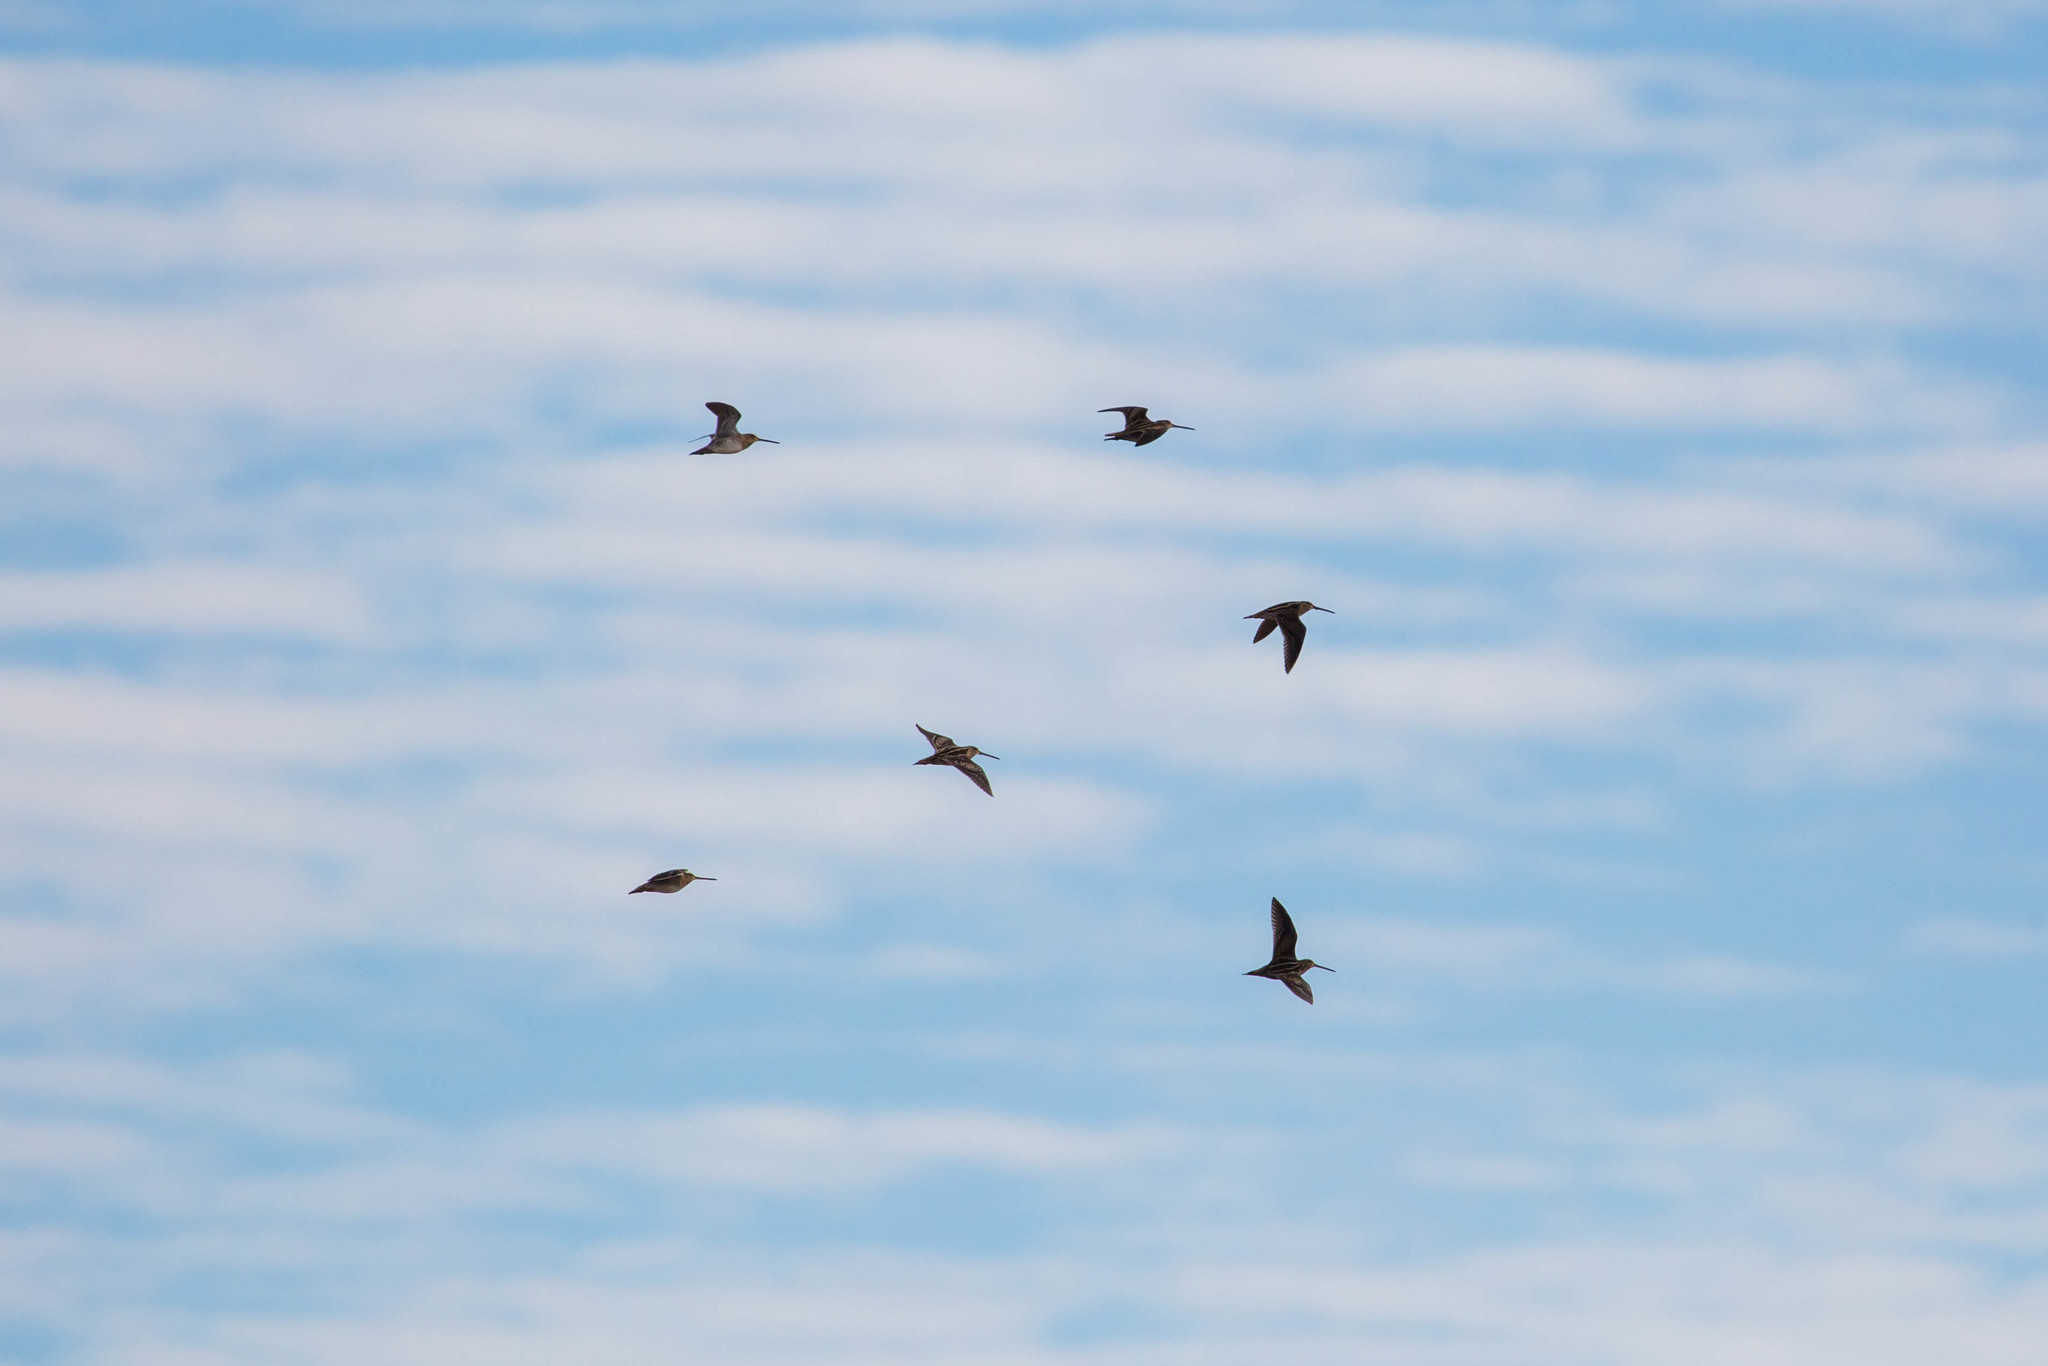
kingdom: Animalia
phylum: Chordata
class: Aves
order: Charadriiformes
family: Scolopacidae
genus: Gallinago
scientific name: Gallinago delicata
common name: Wilson's snipe
